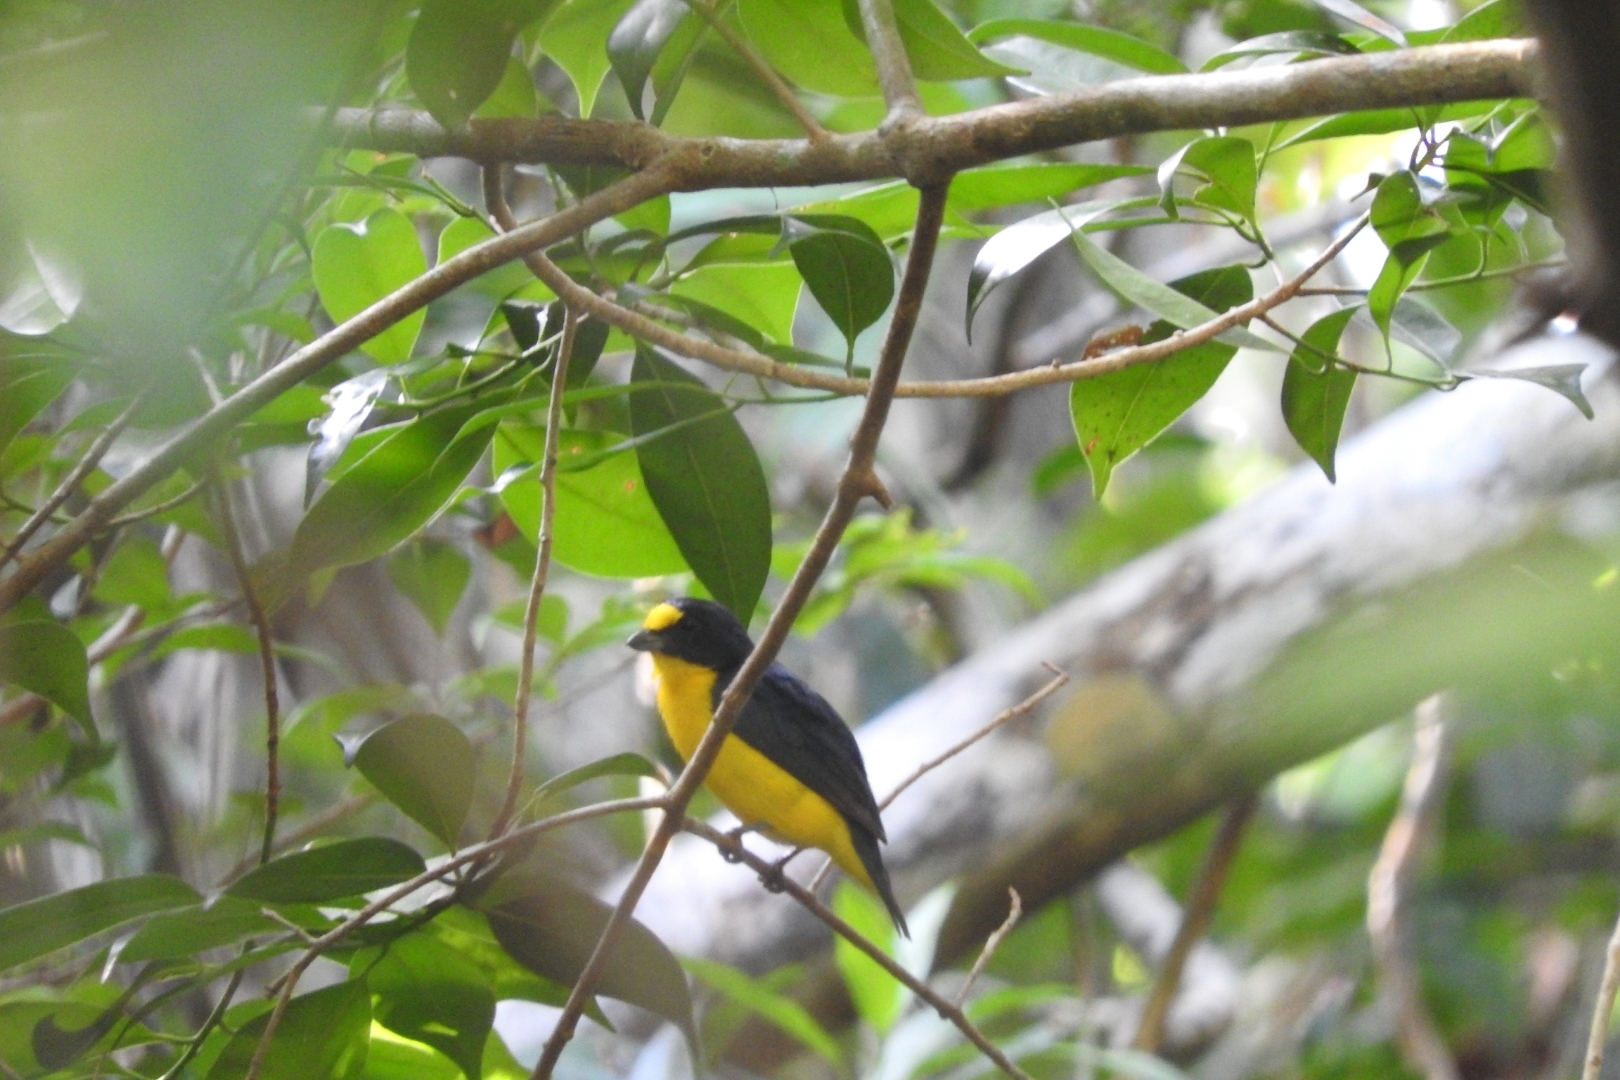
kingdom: Animalia
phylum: Chordata
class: Aves
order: Passeriformes
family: Fringillidae
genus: Euphonia
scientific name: Euphonia hirundinacea
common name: Yellow-throated euphonia
